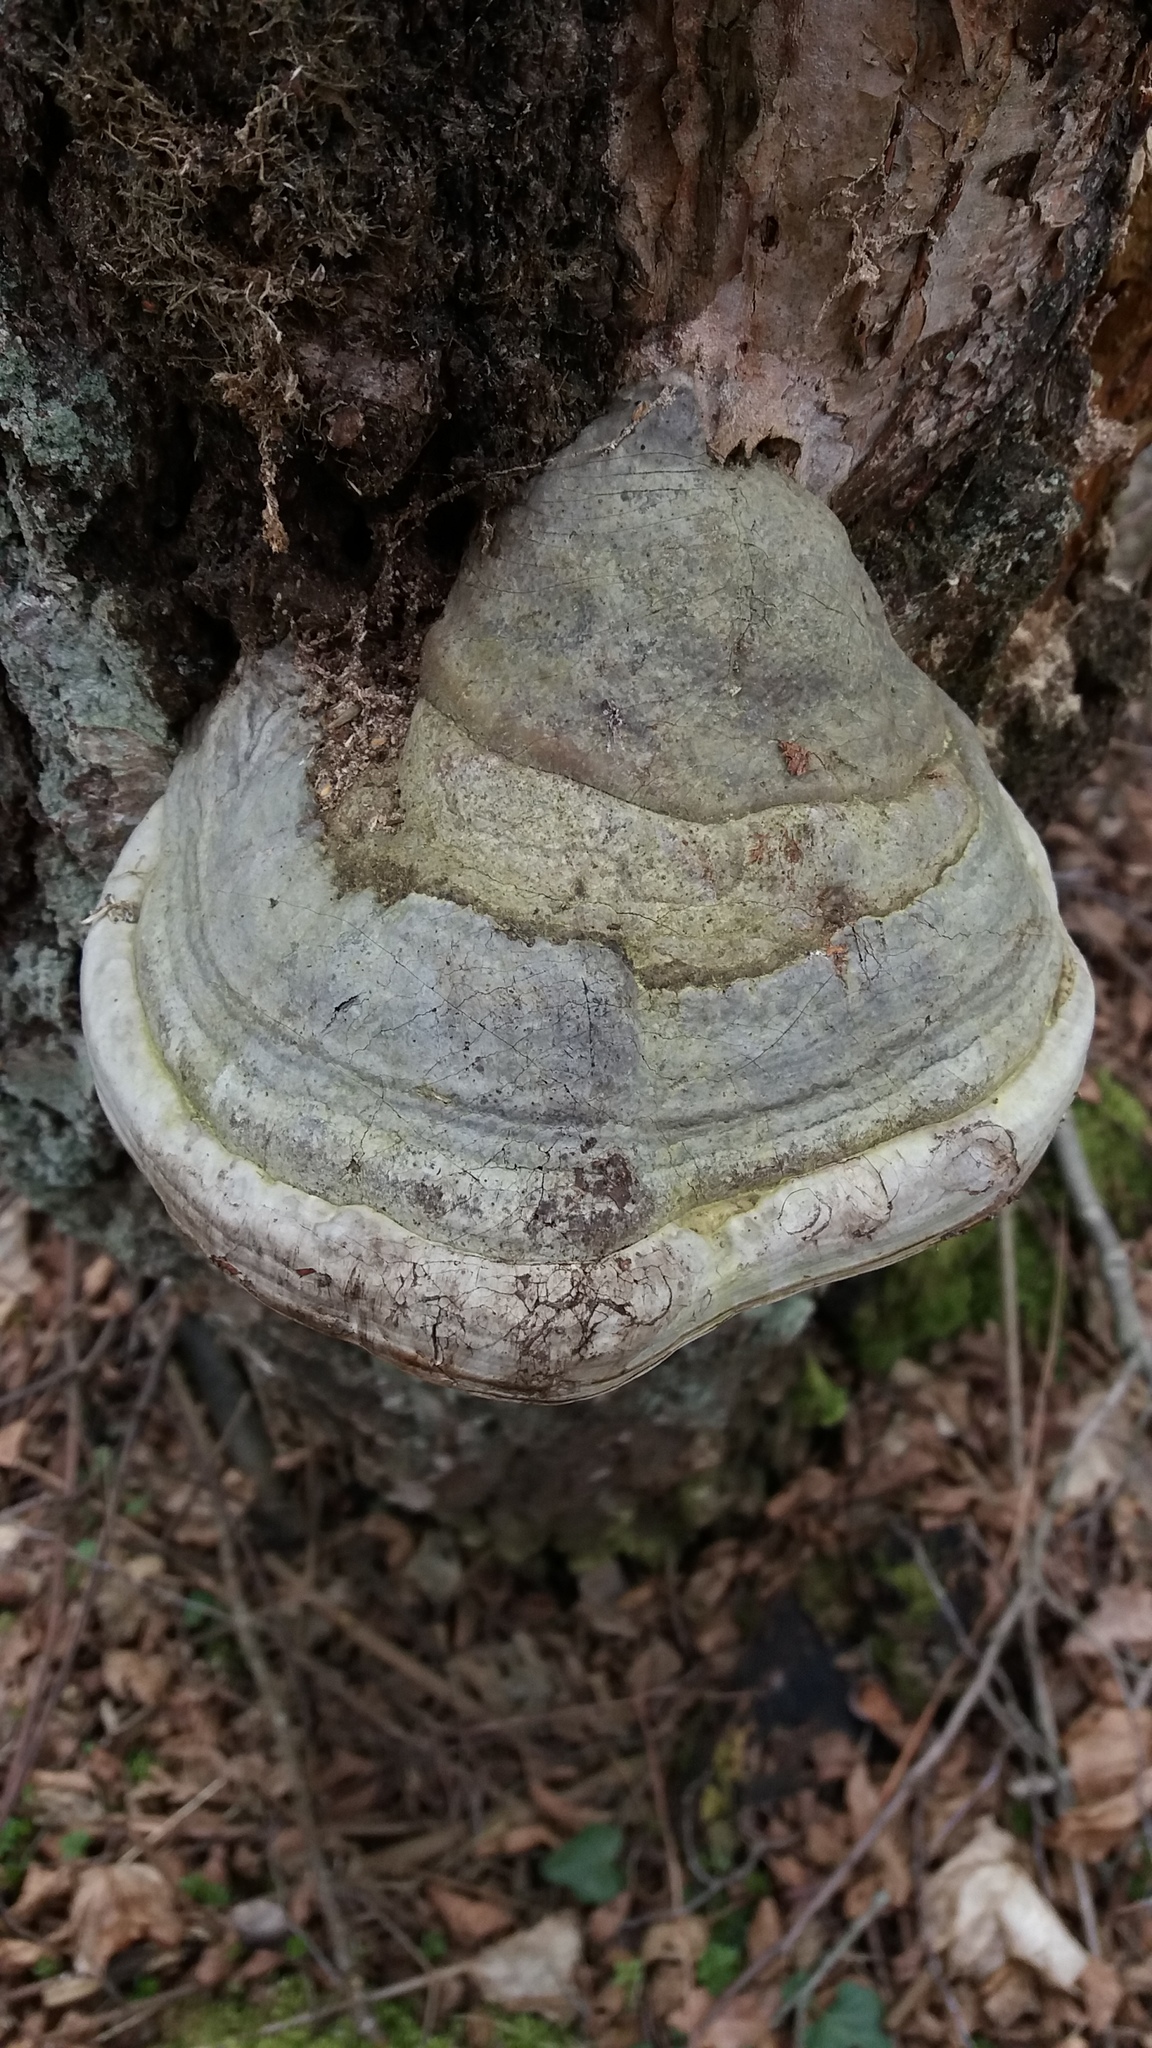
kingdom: Fungi
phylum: Basidiomycota
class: Agaricomycetes
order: Polyporales
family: Polyporaceae
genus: Fomes
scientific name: Fomes fomentarius
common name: Hoof fungus
